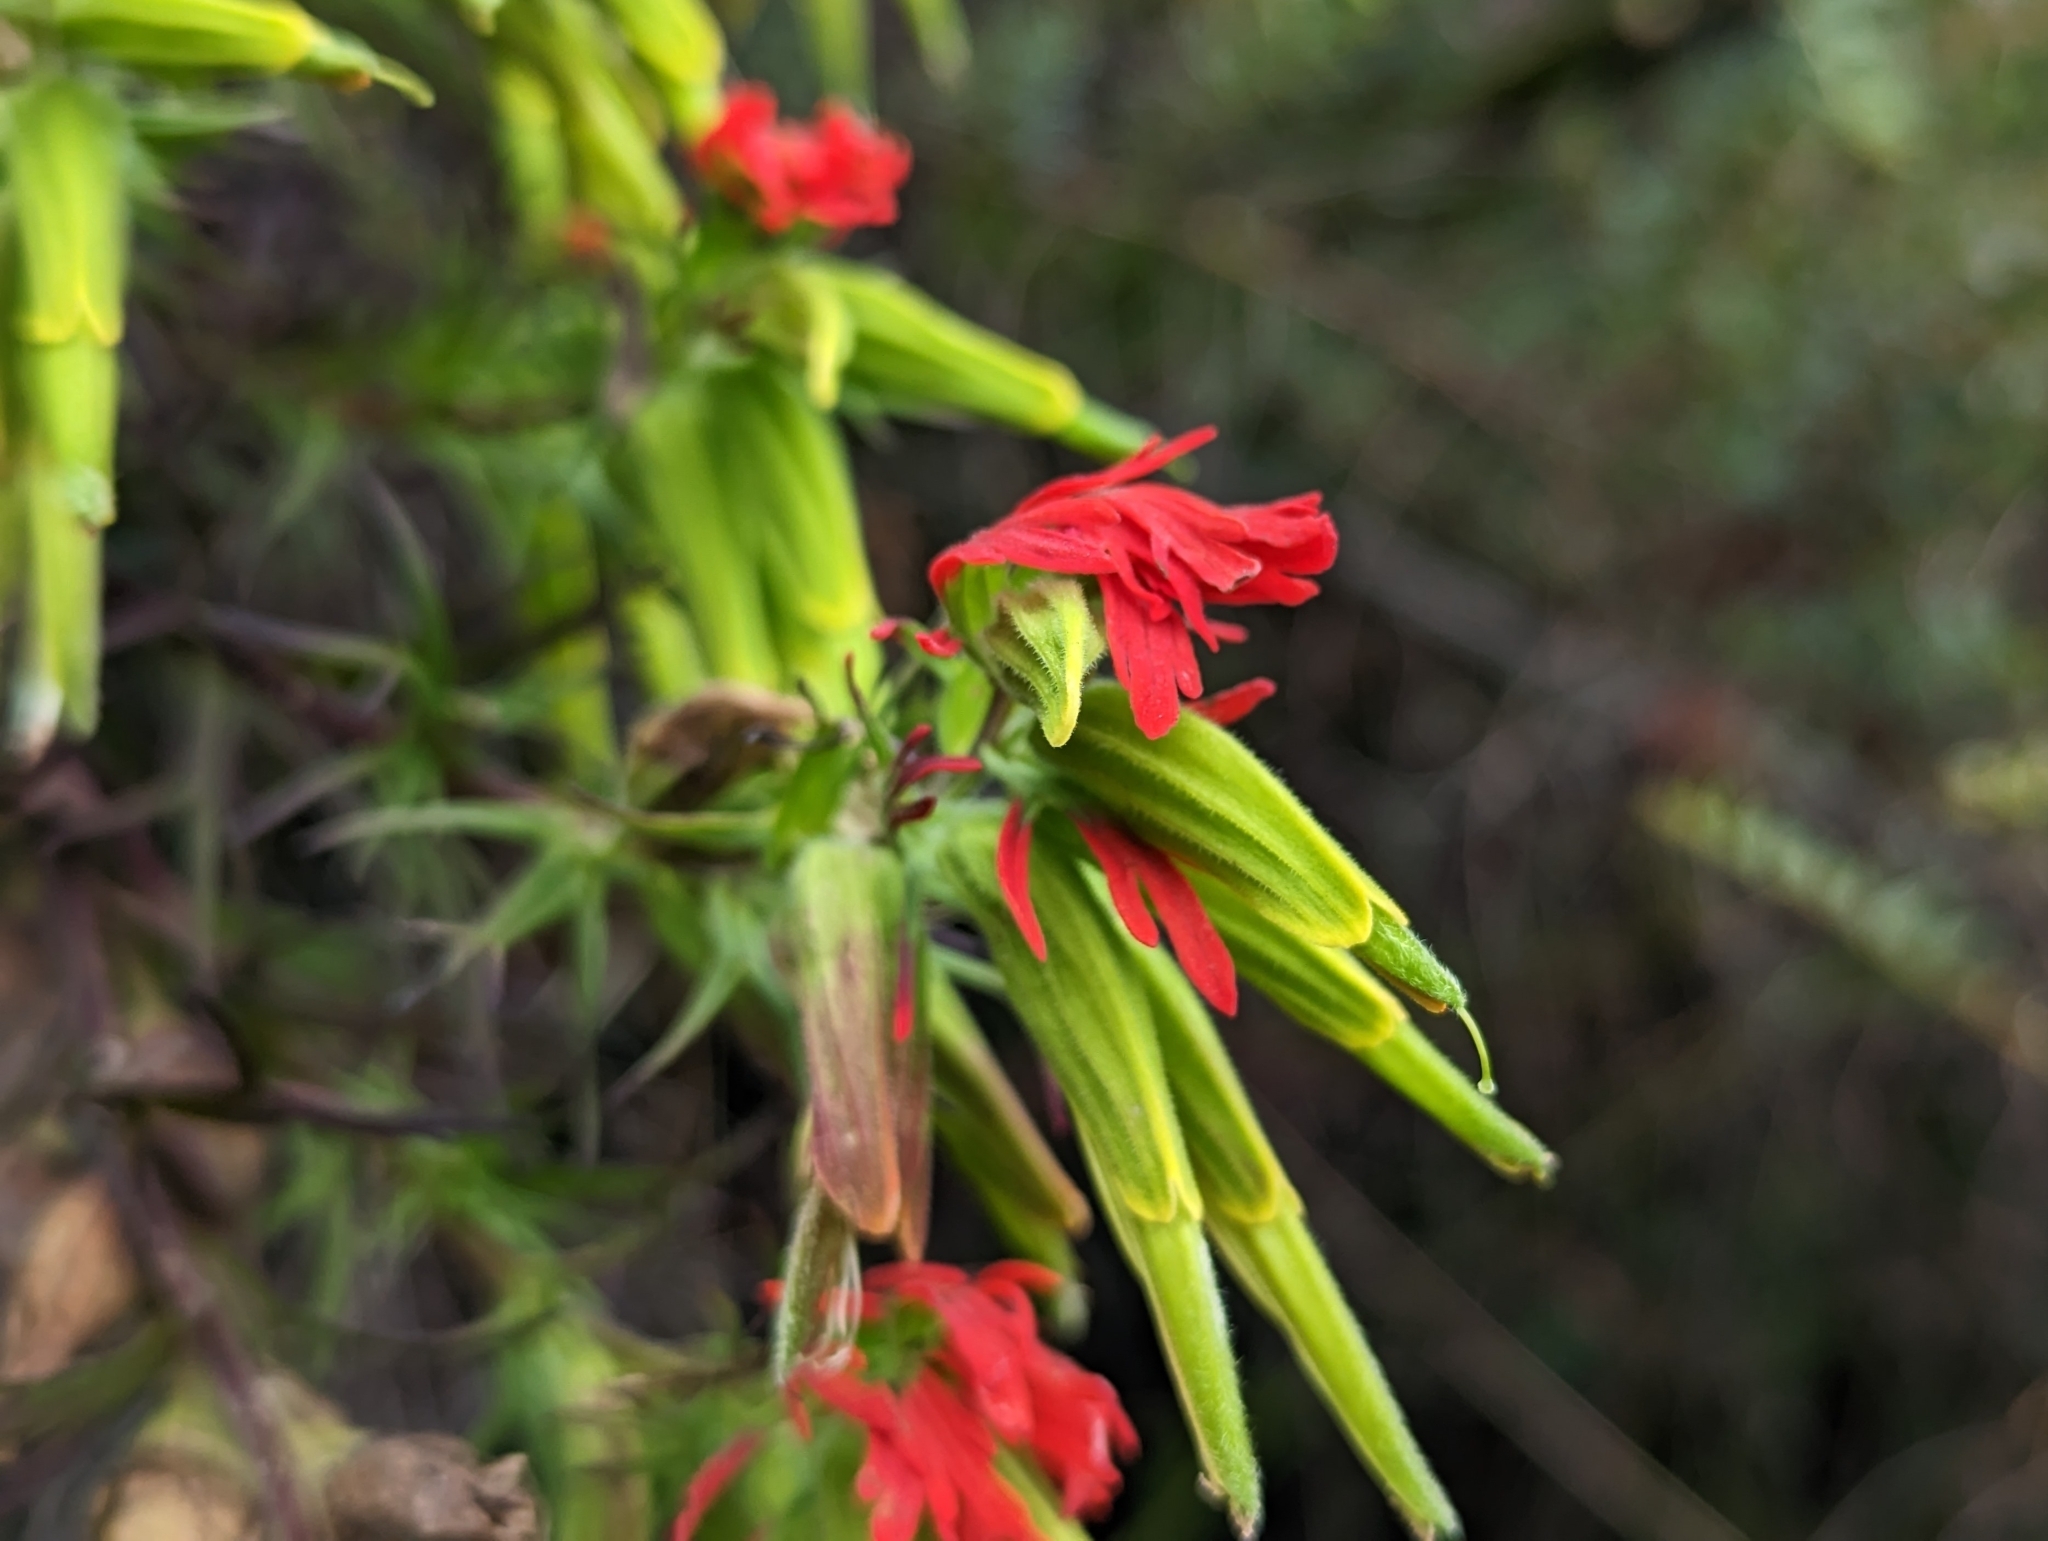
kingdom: Plantae
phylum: Tracheophyta
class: Magnoliopsida
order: Lamiales
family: Orobanchaceae
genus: Castilleja
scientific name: Castilleja fissifolia
